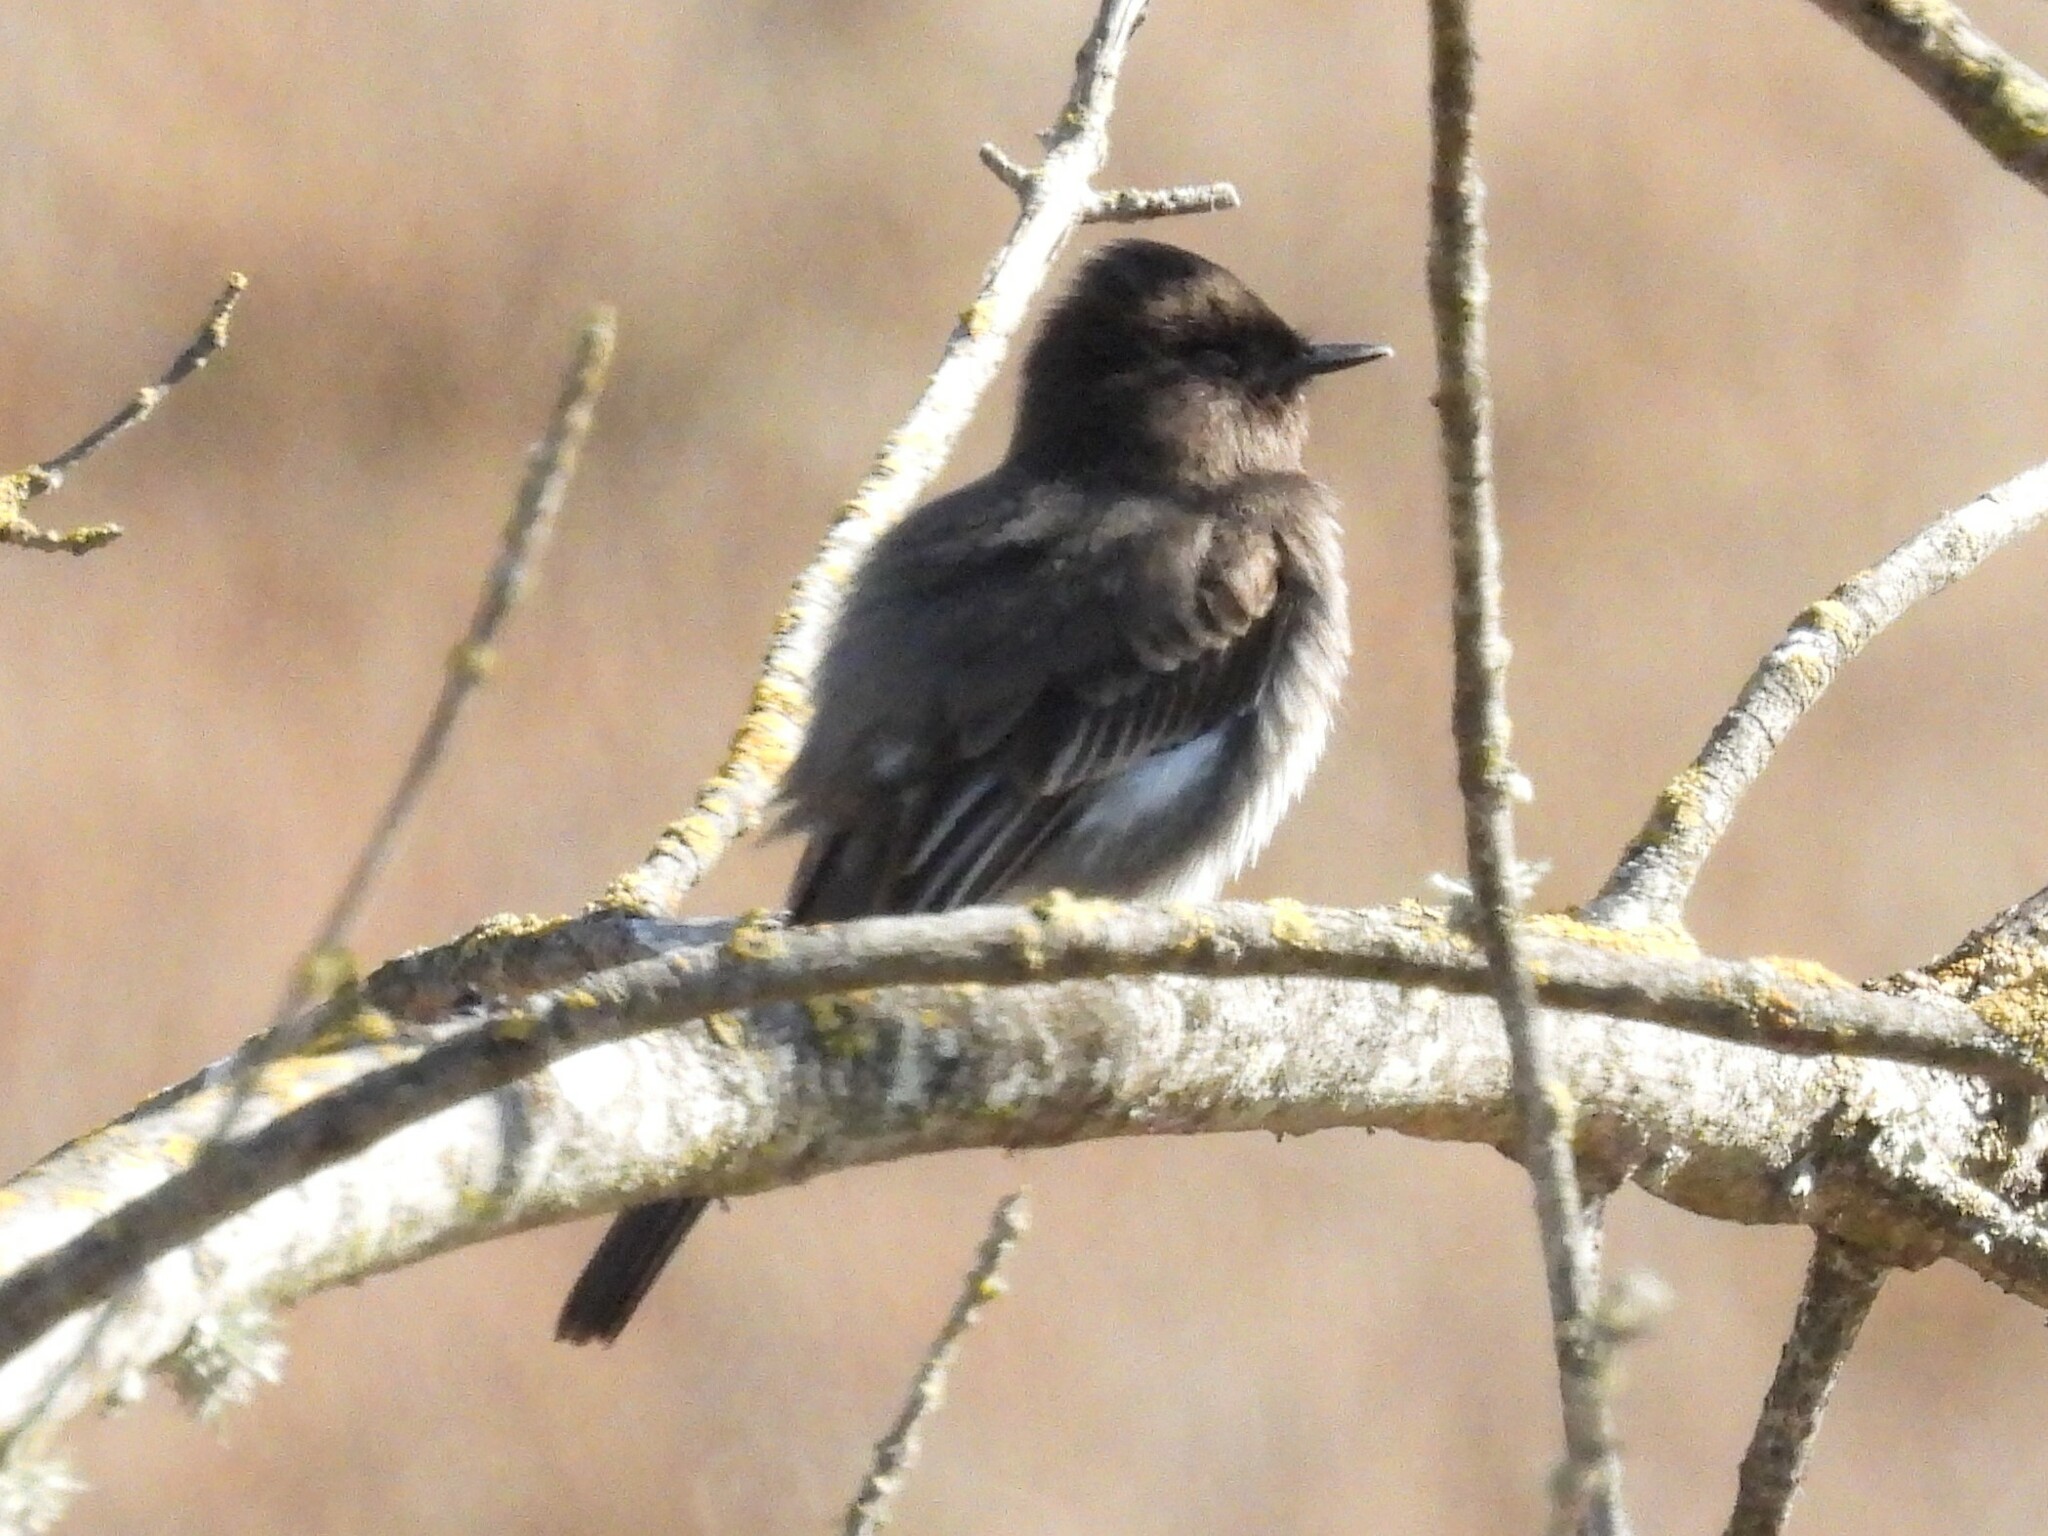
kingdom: Animalia
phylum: Chordata
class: Aves
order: Passeriformes
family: Tyrannidae
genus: Sayornis
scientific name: Sayornis nigricans
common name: Black phoebe
